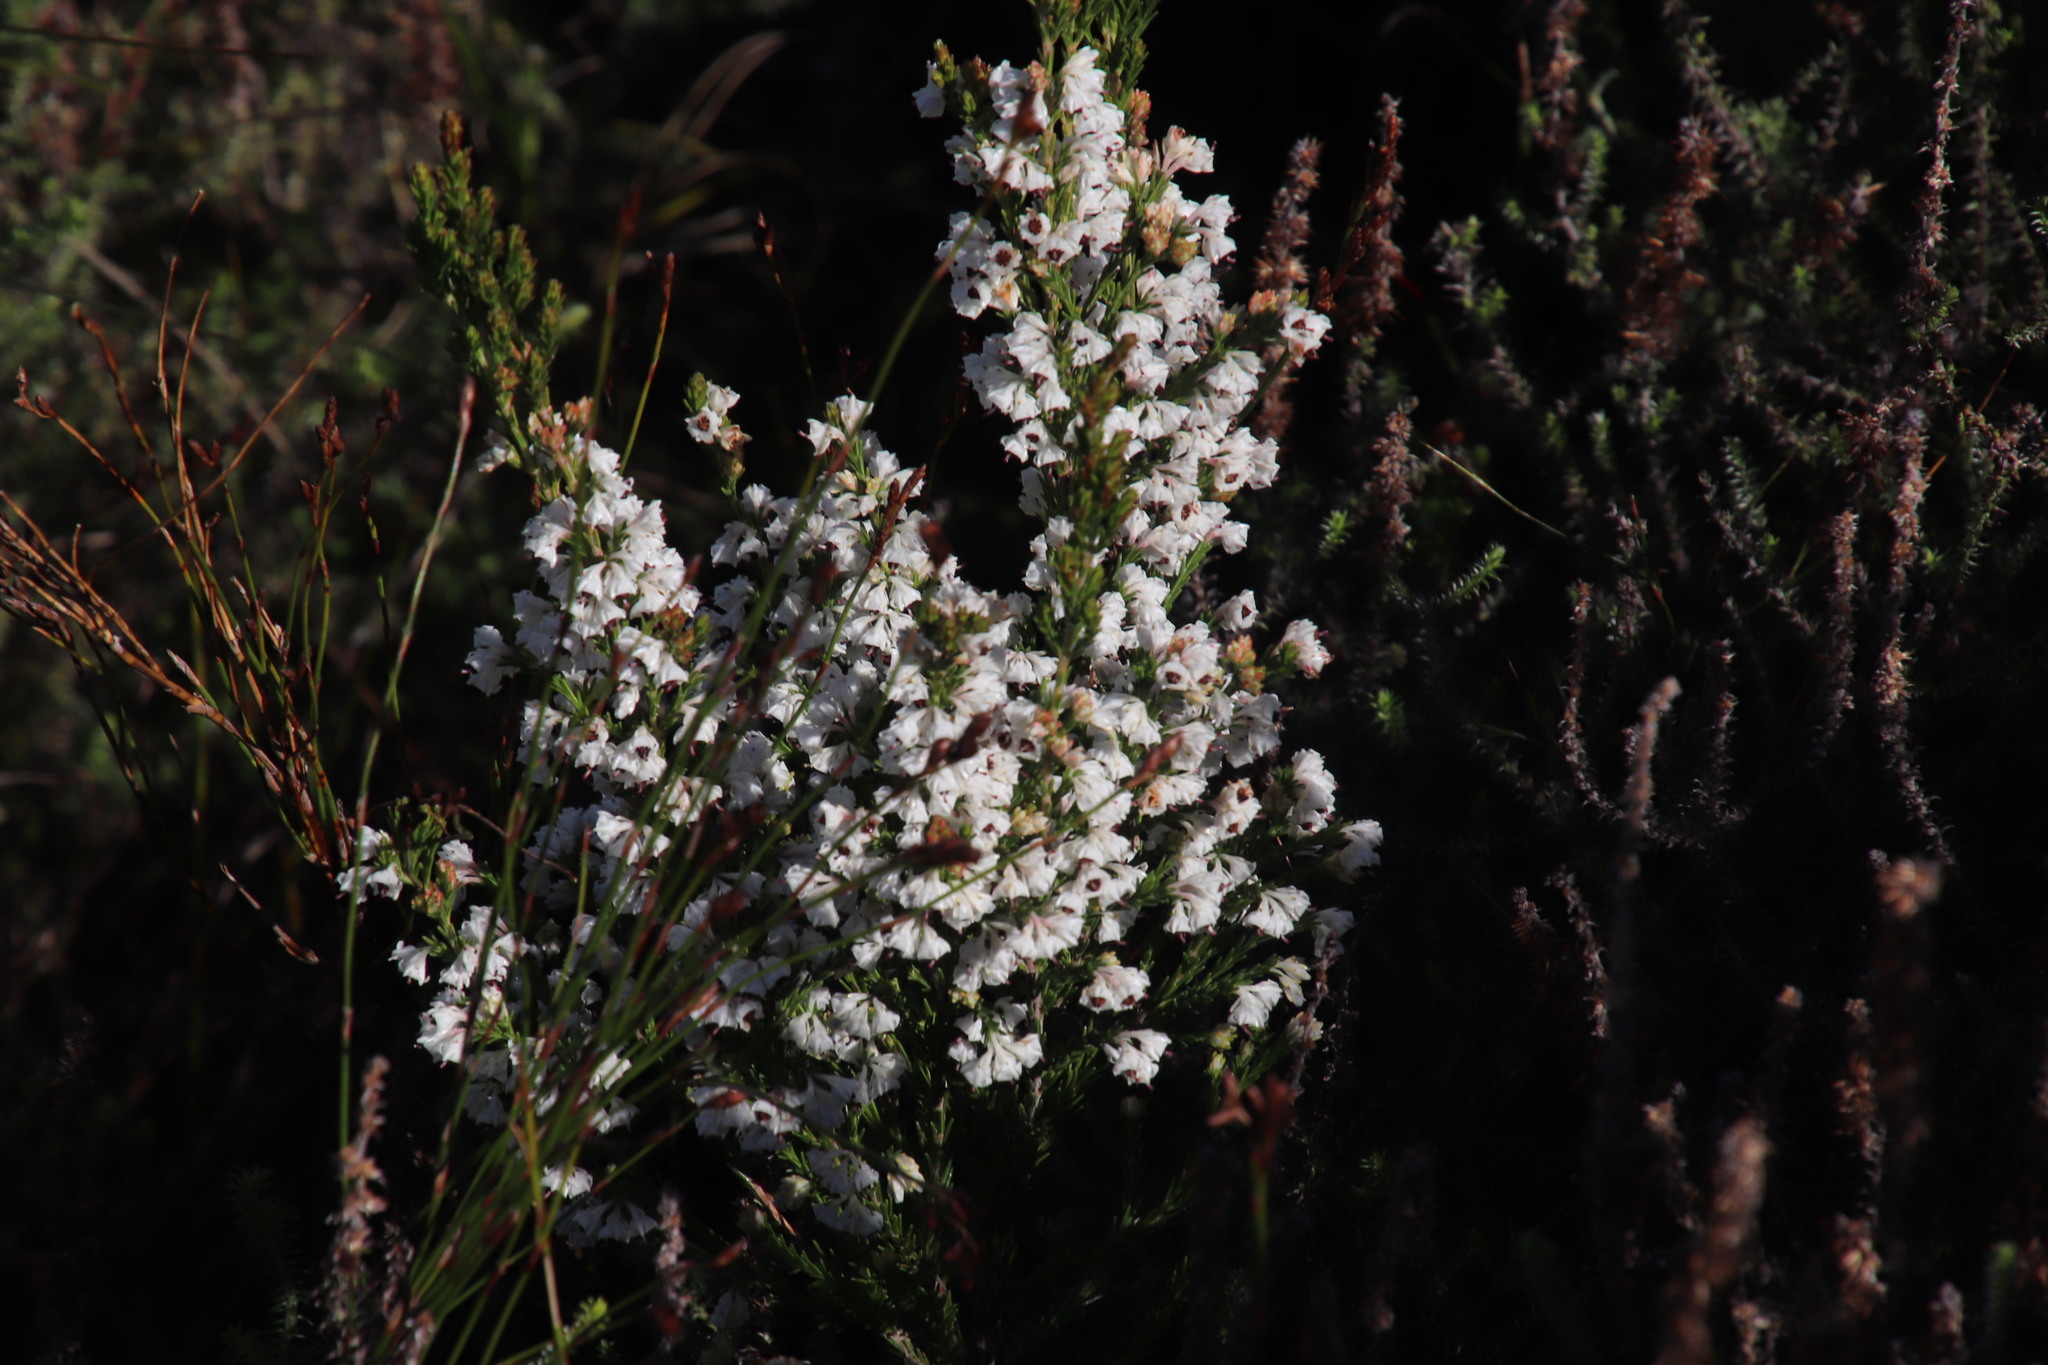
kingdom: Plantae
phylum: Tracheophyta
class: Magnoliopsida
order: Ericales
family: Ericaceae
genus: Erica
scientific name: Erica calycina
